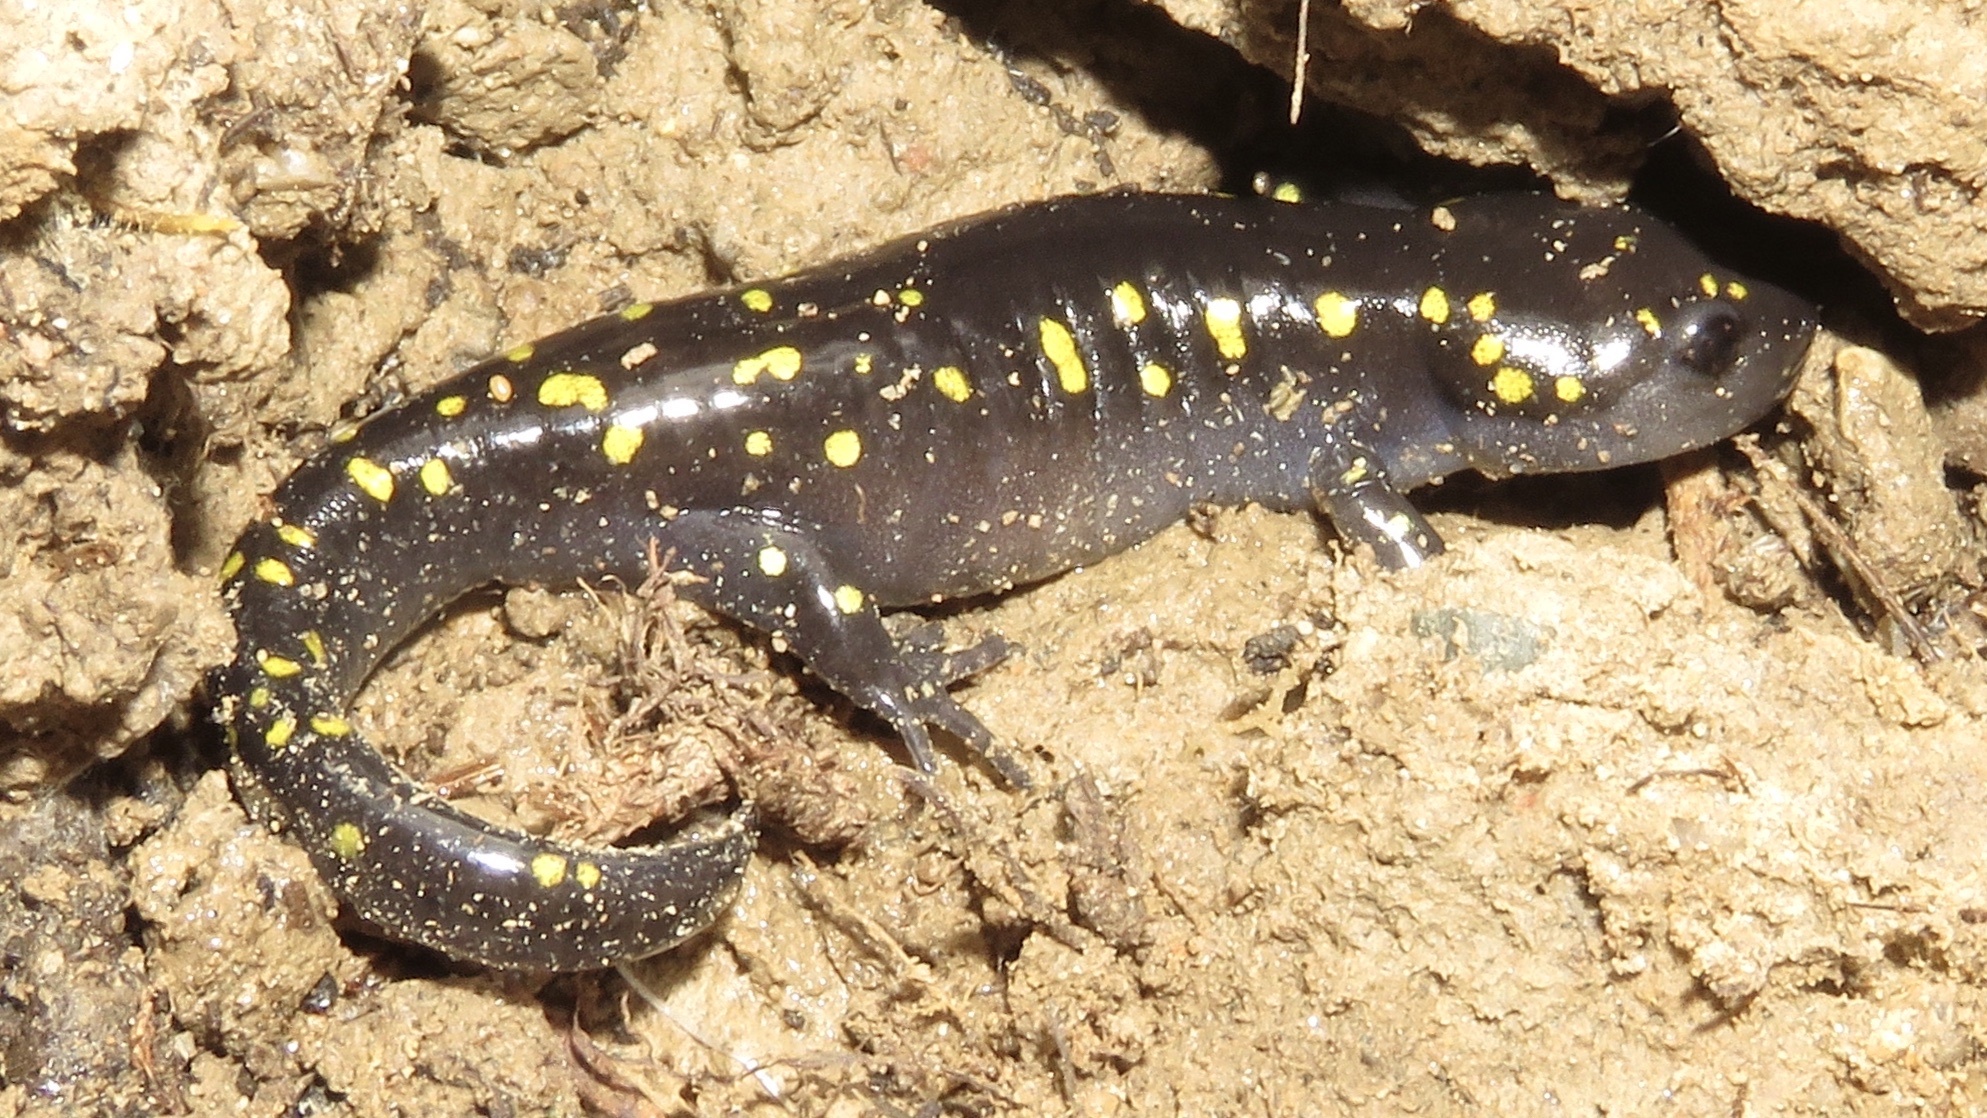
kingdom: Animalia
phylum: Chordata
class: Amphibia
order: Caudata
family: Ambystomatidae
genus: Ambystoma
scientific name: Ambystoma maculatum
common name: Spotted salamander
